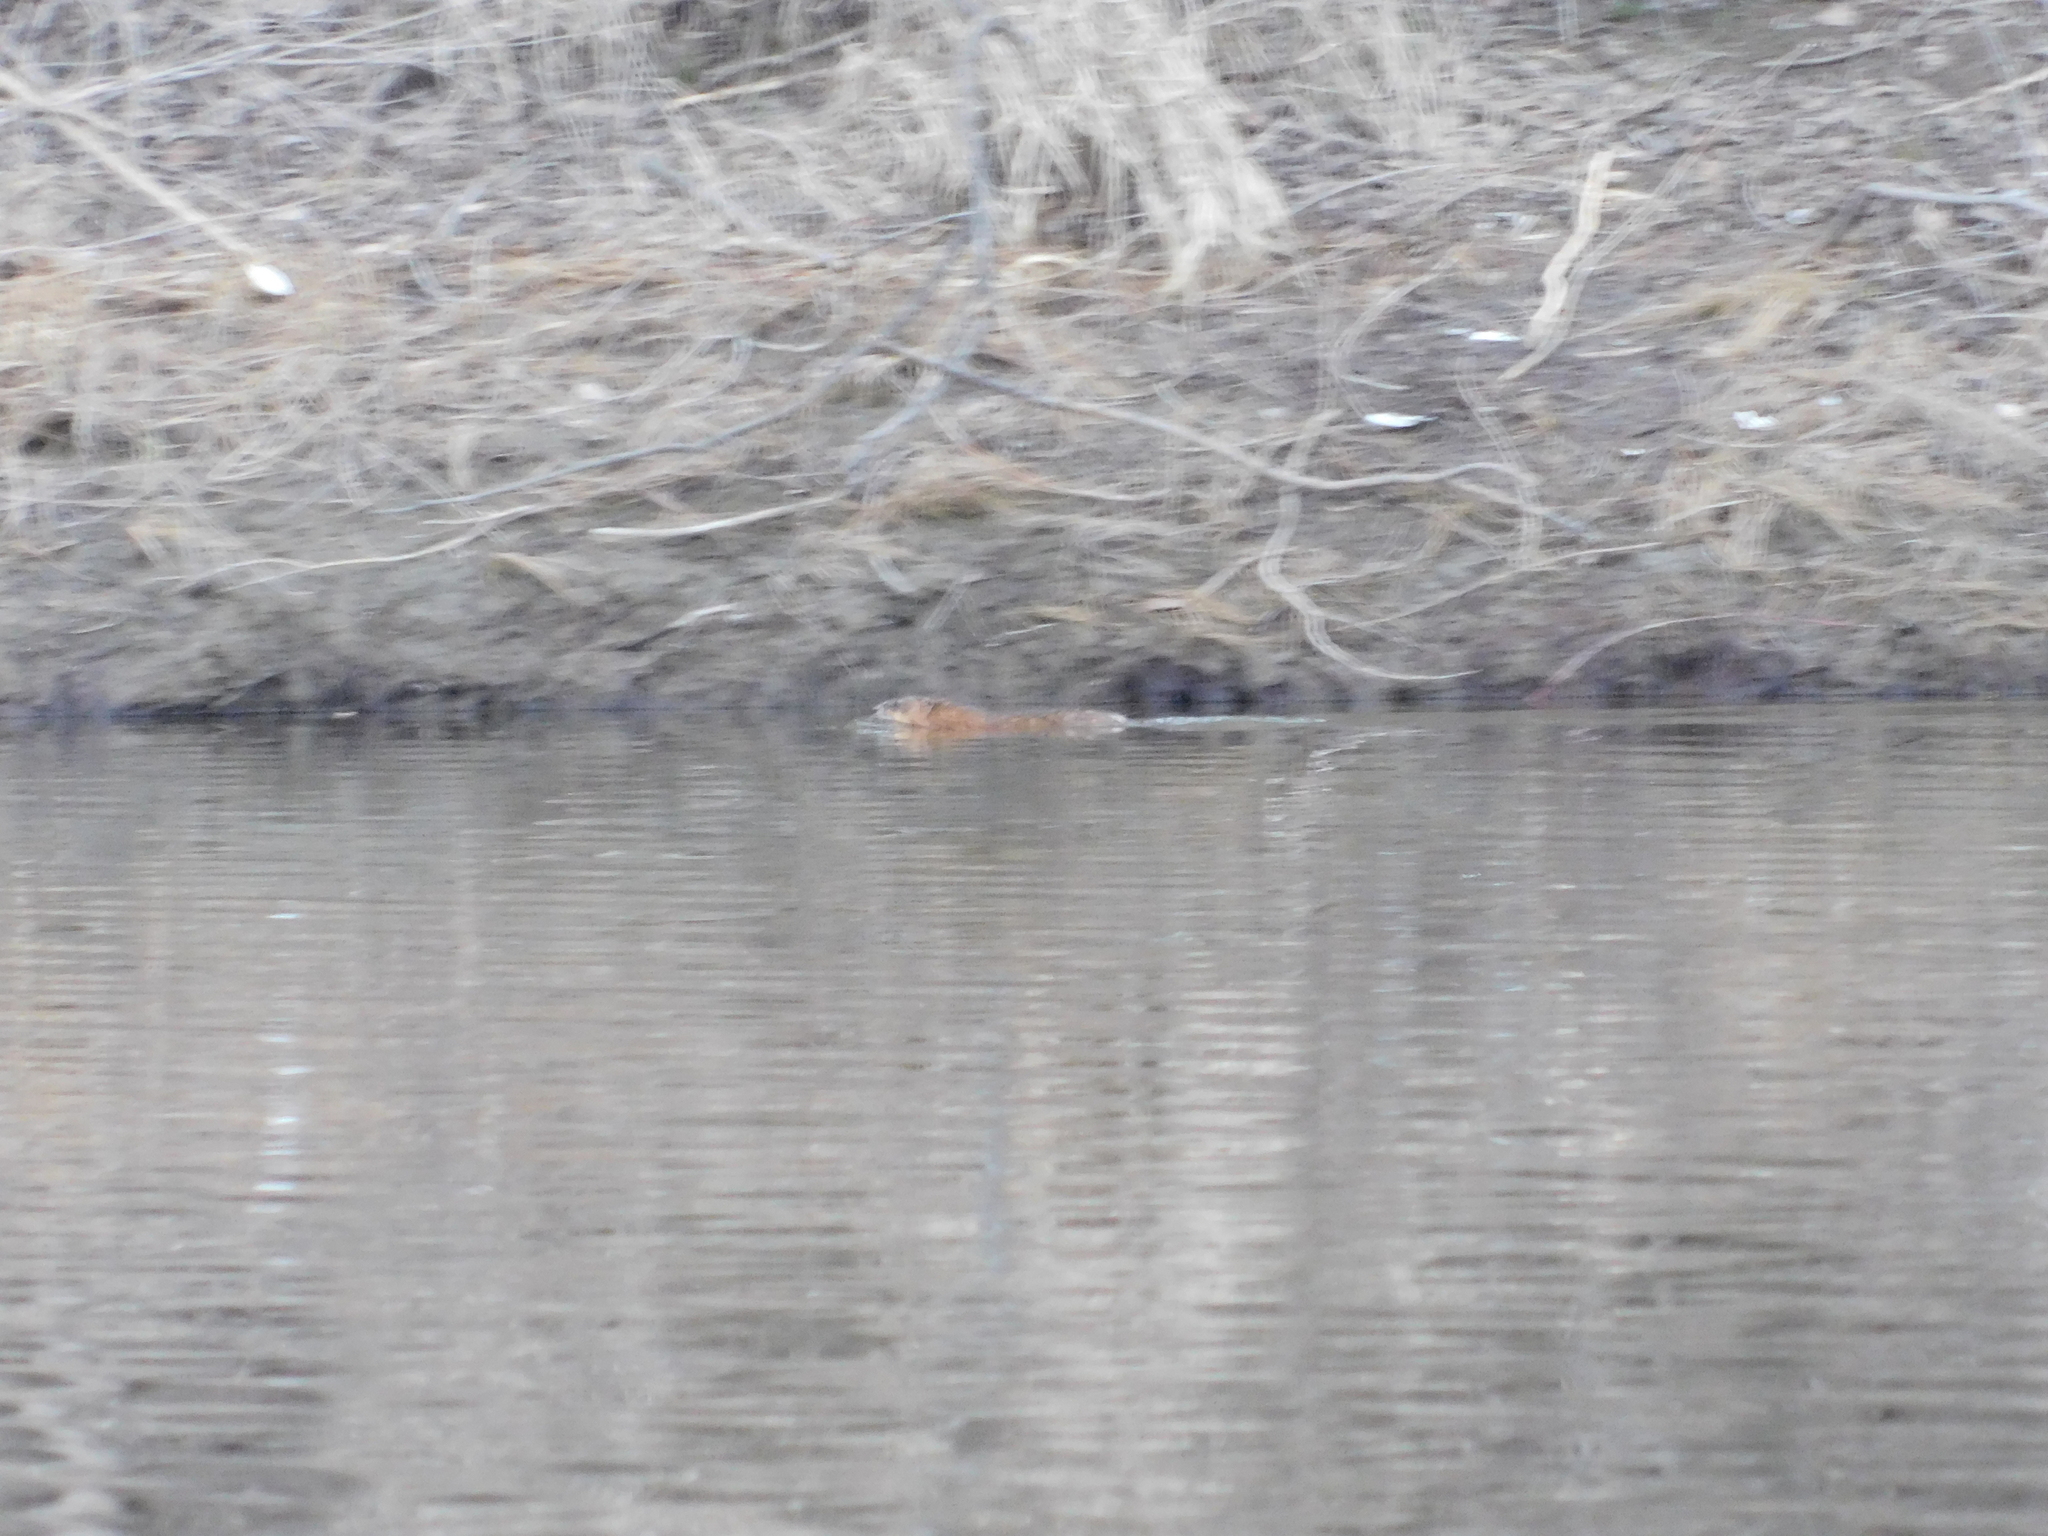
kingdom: Animalia
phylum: Chordata
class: Mammalia
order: Rodentia
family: Cricetidae
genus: Ondatra
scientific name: Ondatra zibethicus
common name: Muskrat
